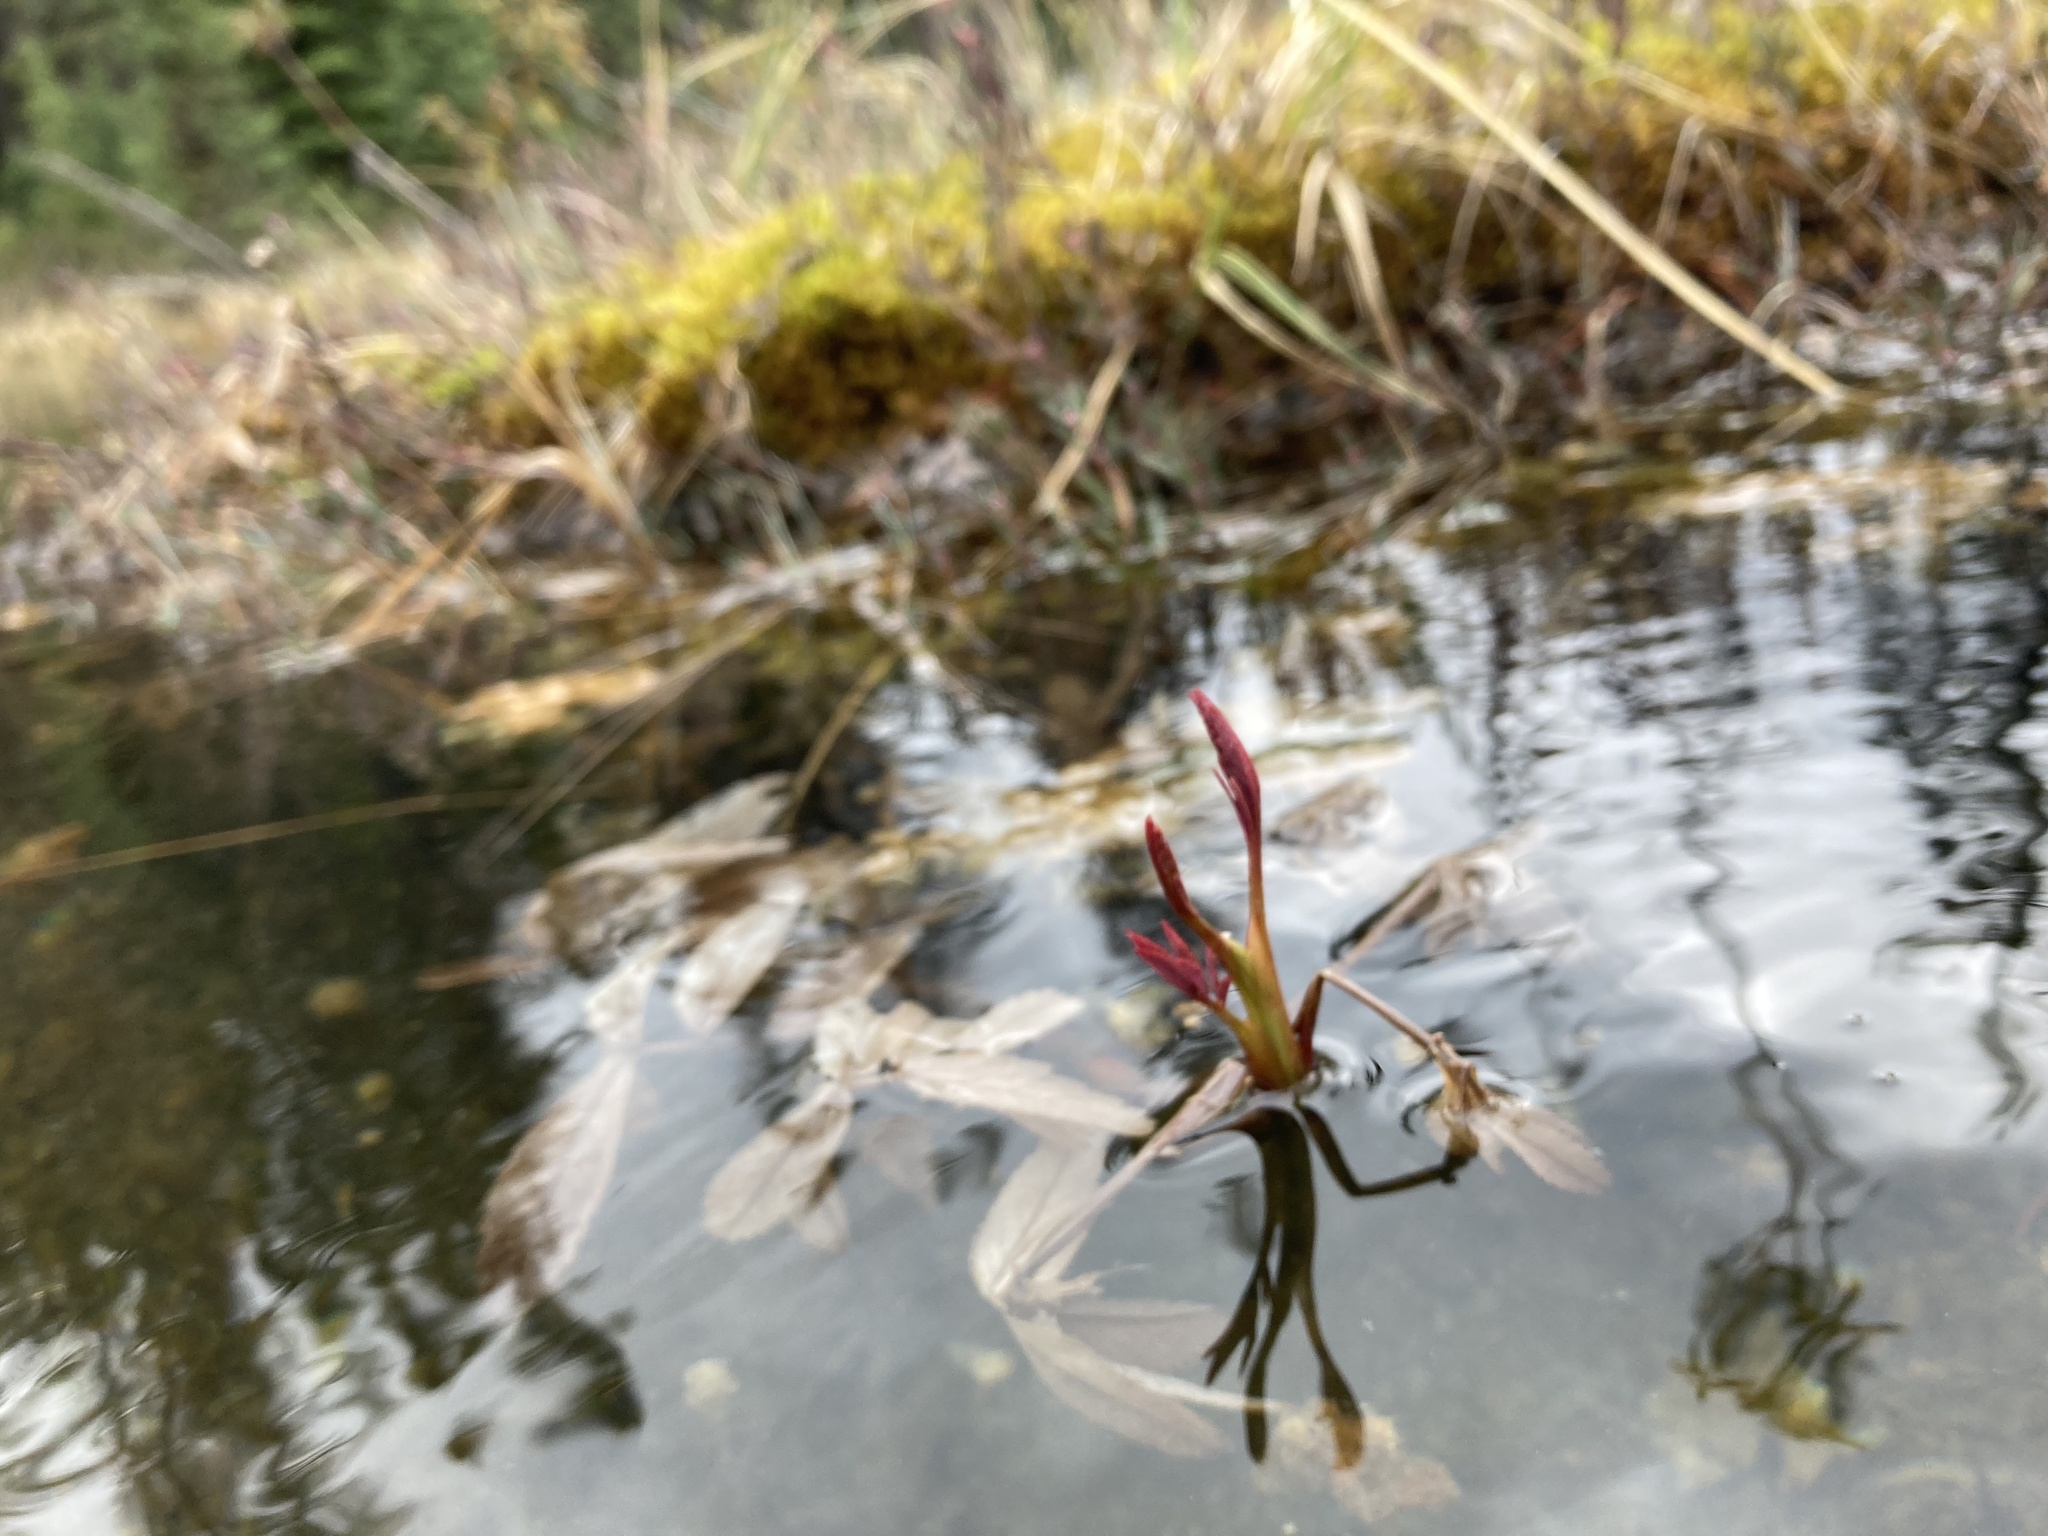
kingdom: Plantae
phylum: Tracheophyta
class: Magnoliopsida
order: Rosales
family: Rosaceae
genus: Comarum
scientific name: Comarum palustre
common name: Marsh cinquefoil
